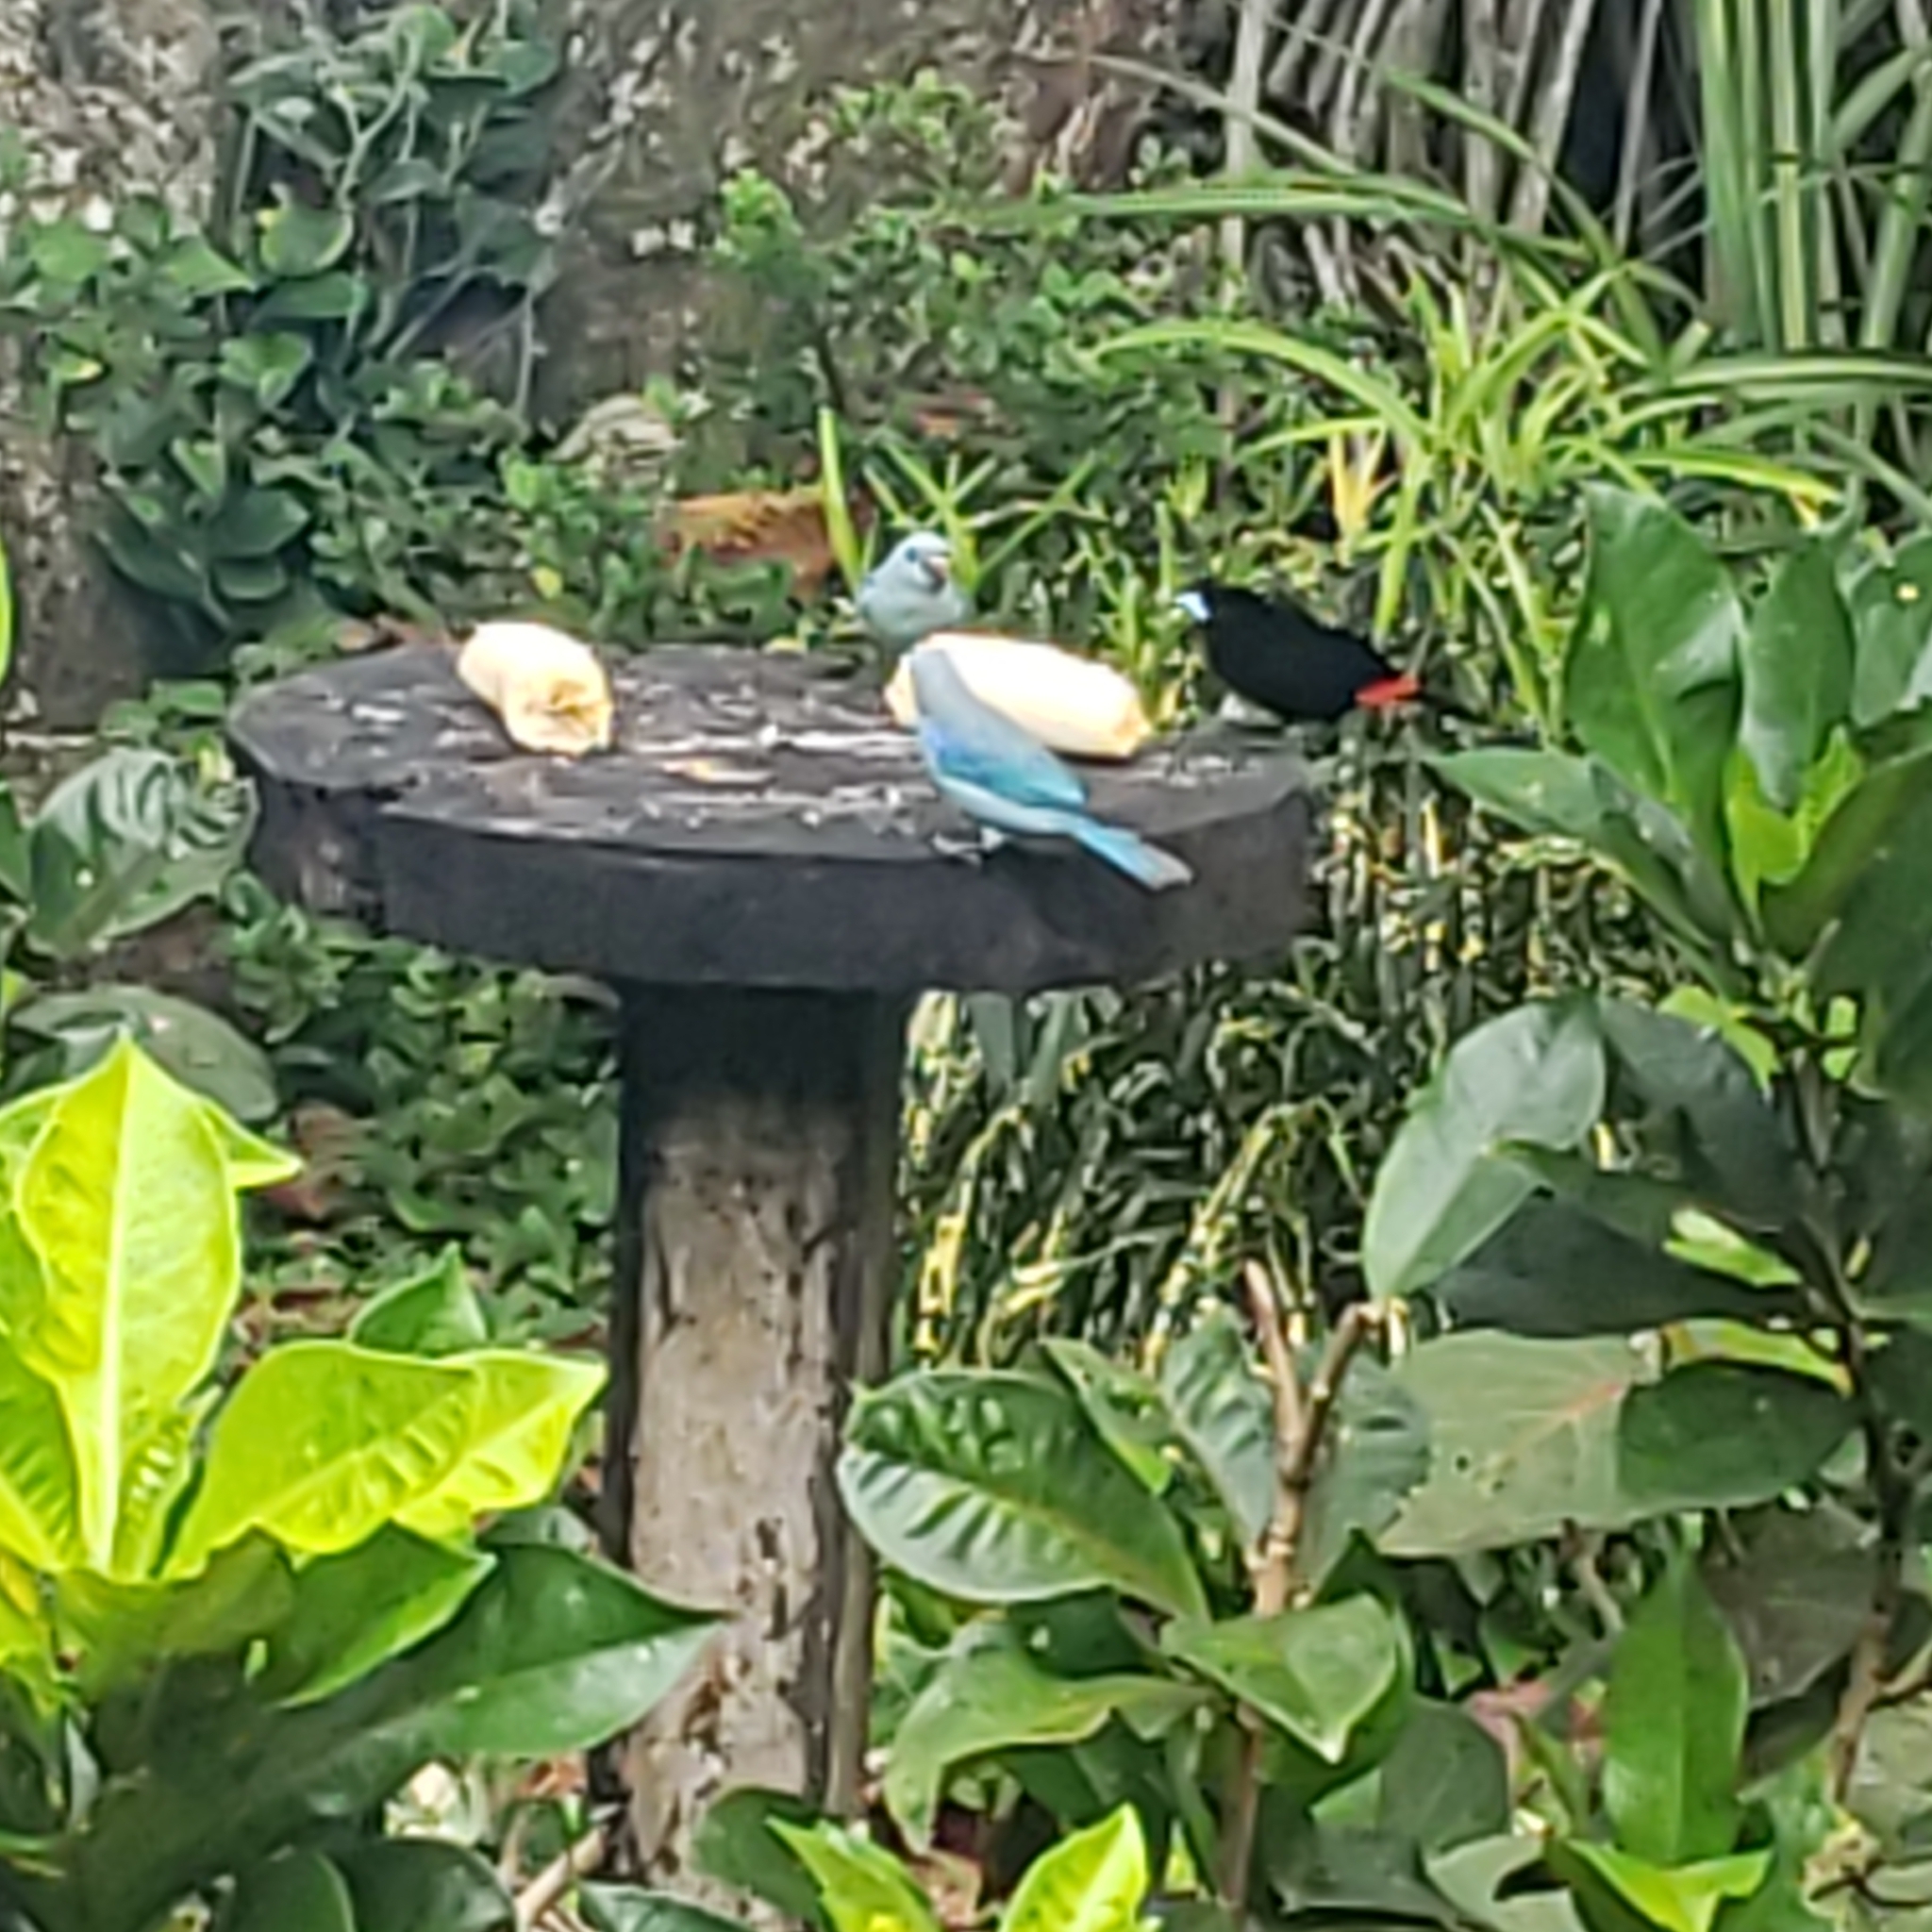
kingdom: Animalia
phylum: Chordata
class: Aves
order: Passeriformes
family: Thraupidae
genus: Thraupis
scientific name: Thraupis episcopus
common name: Blue-grey tanager
